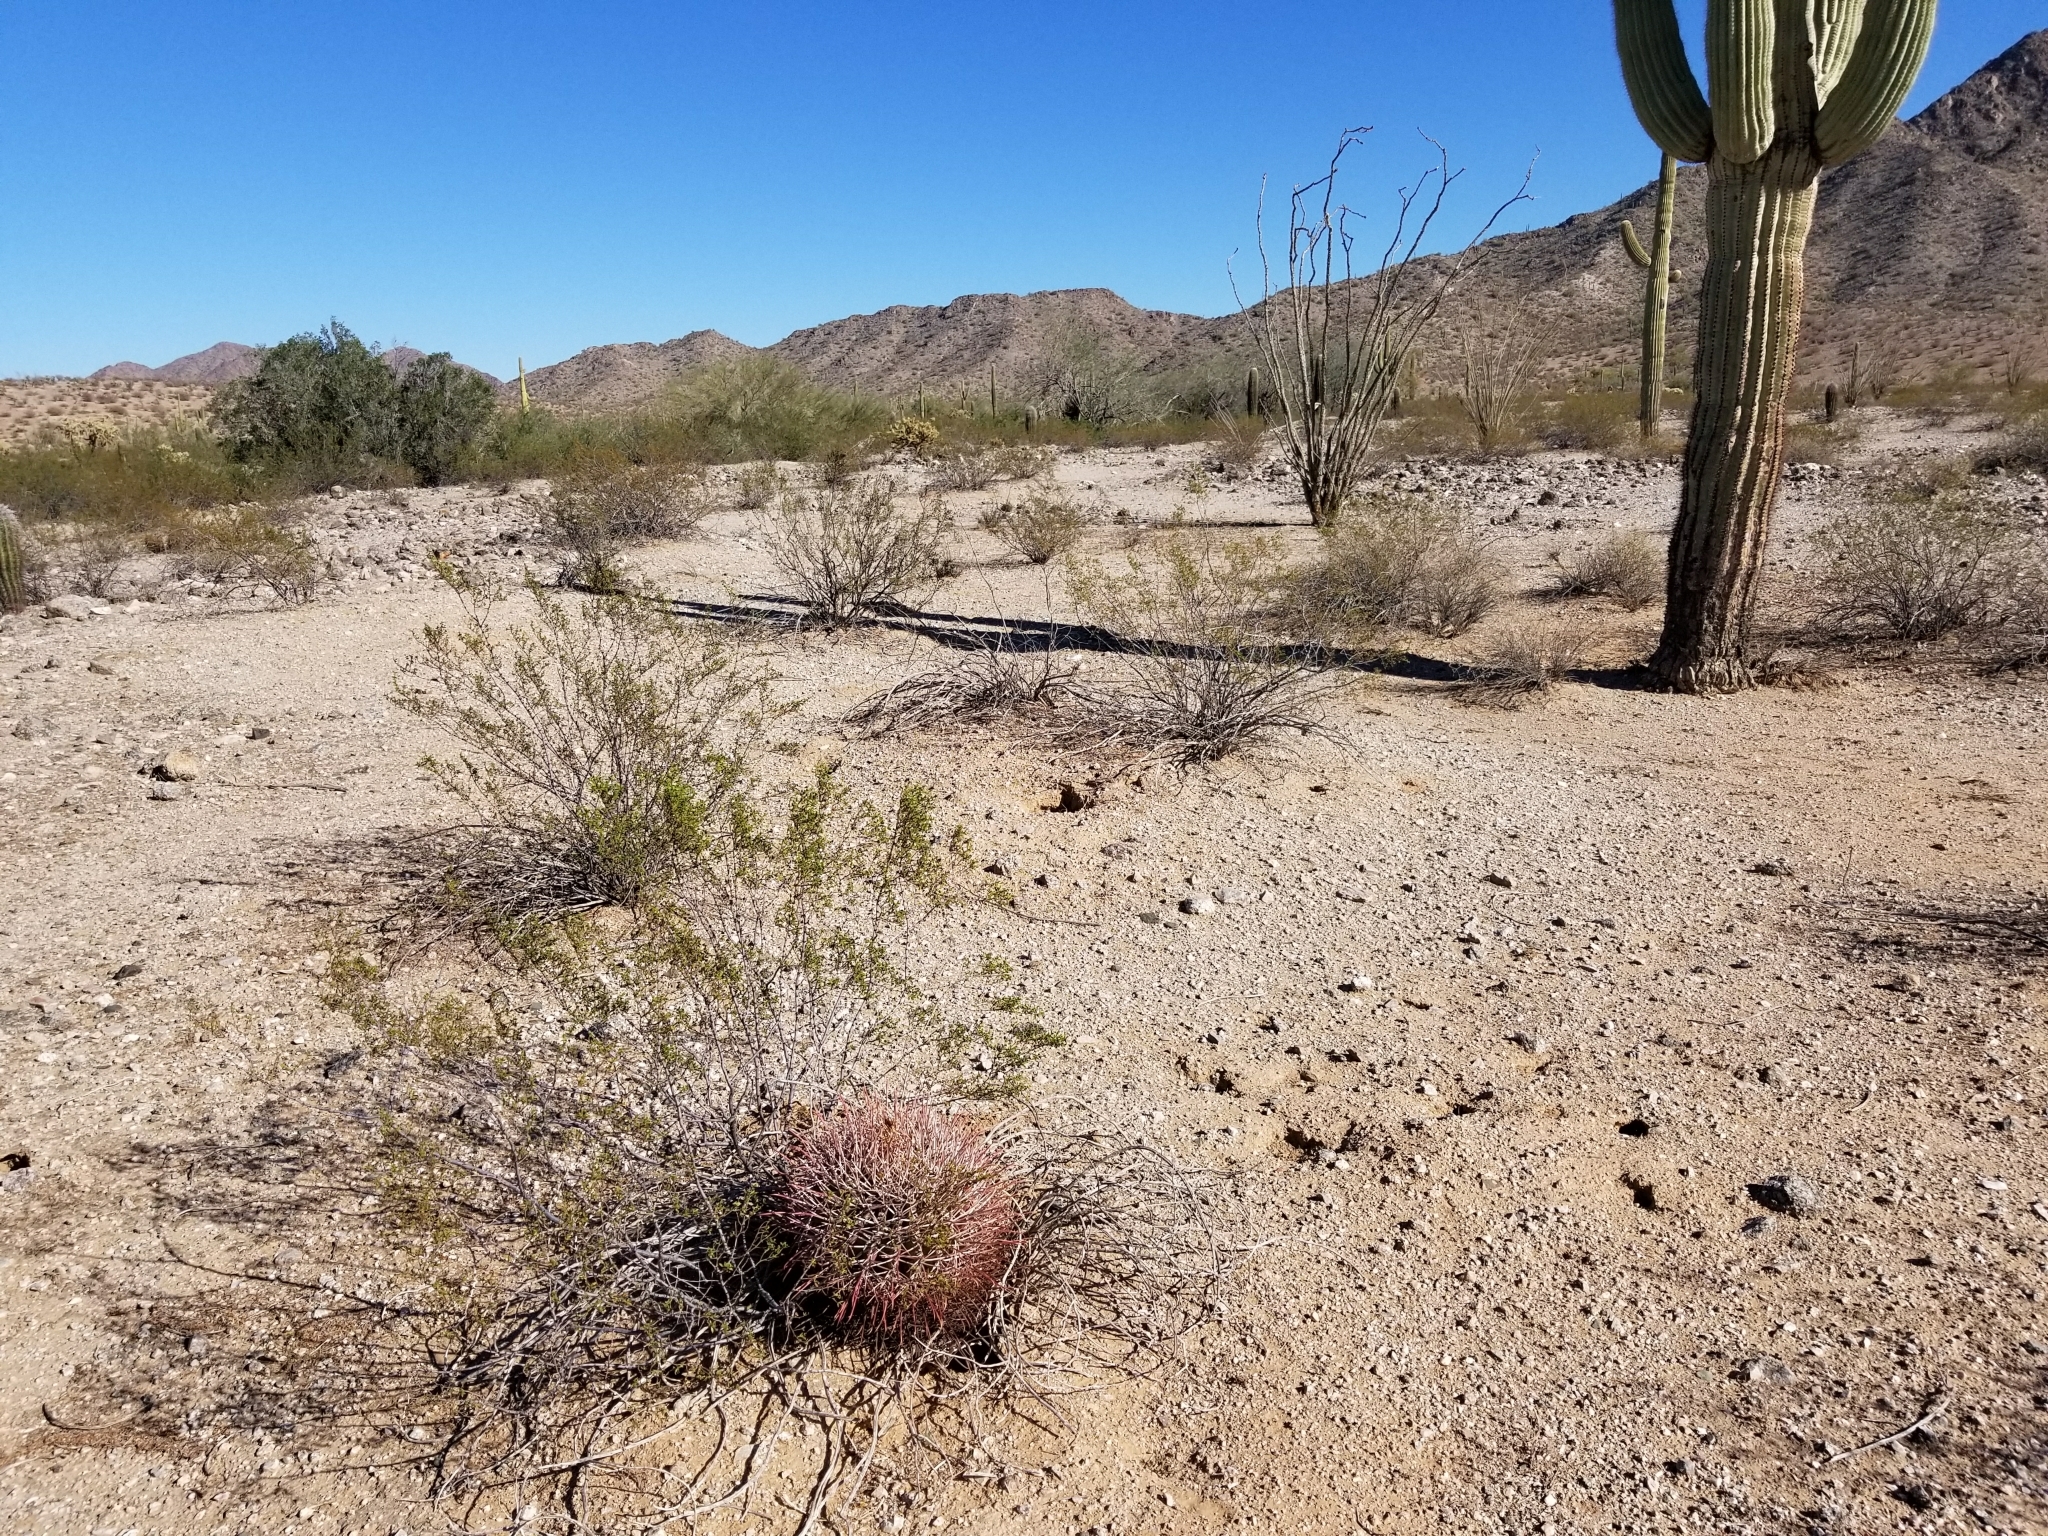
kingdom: Plantae
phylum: Tracheophyta
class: Magnoliopsida
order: Caryophyllales
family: Cactaceae
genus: Ferocactus
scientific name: Ferocactus emoryi
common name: Emory's barrel cactus
